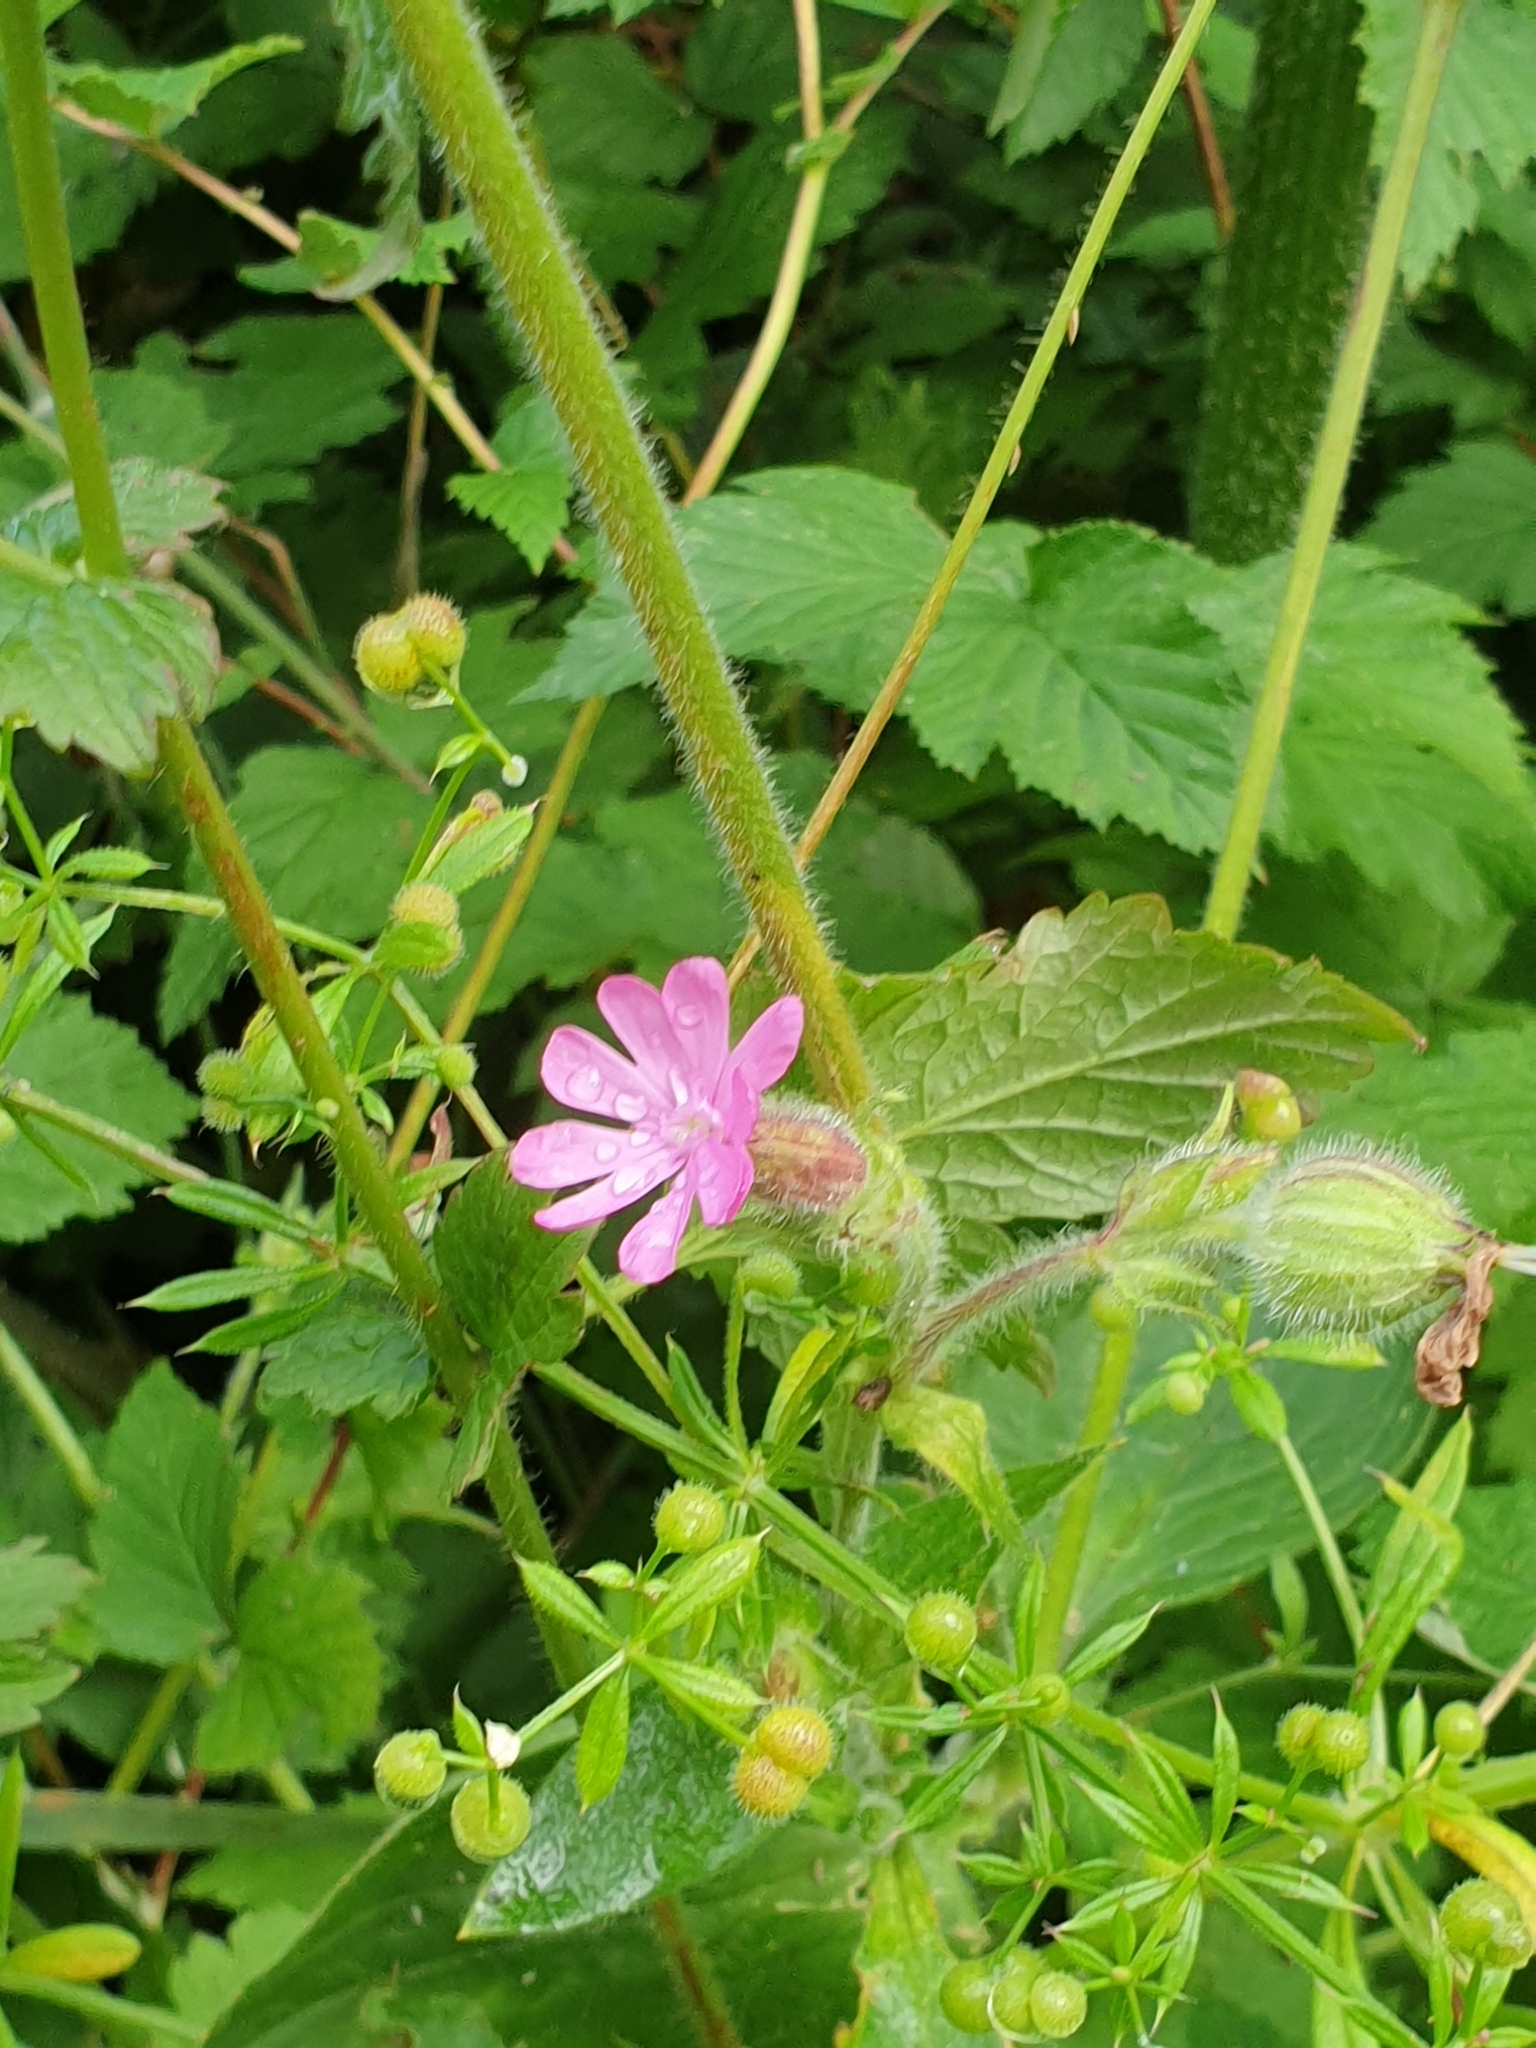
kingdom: Plantae
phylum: Tracheophyta
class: Magnoliopsida
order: Caryophyllales
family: Caryophyllaceae
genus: Silene
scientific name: Silene dioica
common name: Red campion
